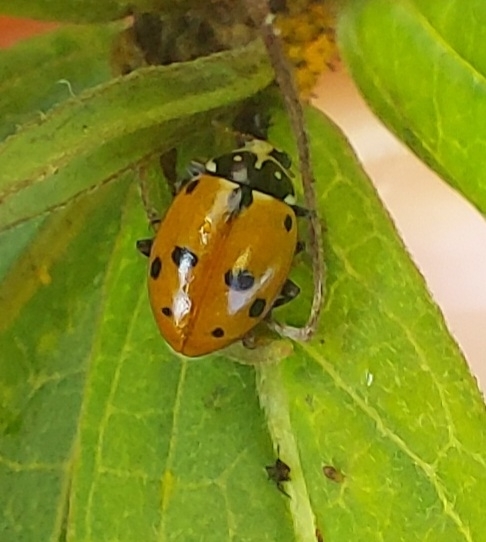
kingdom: Animalia
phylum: Arthropoda
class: Insecta
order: Coleoptera
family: Coccinellidae
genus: Hippodamia
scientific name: Hippodamia variegata
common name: Ladybird beetle
